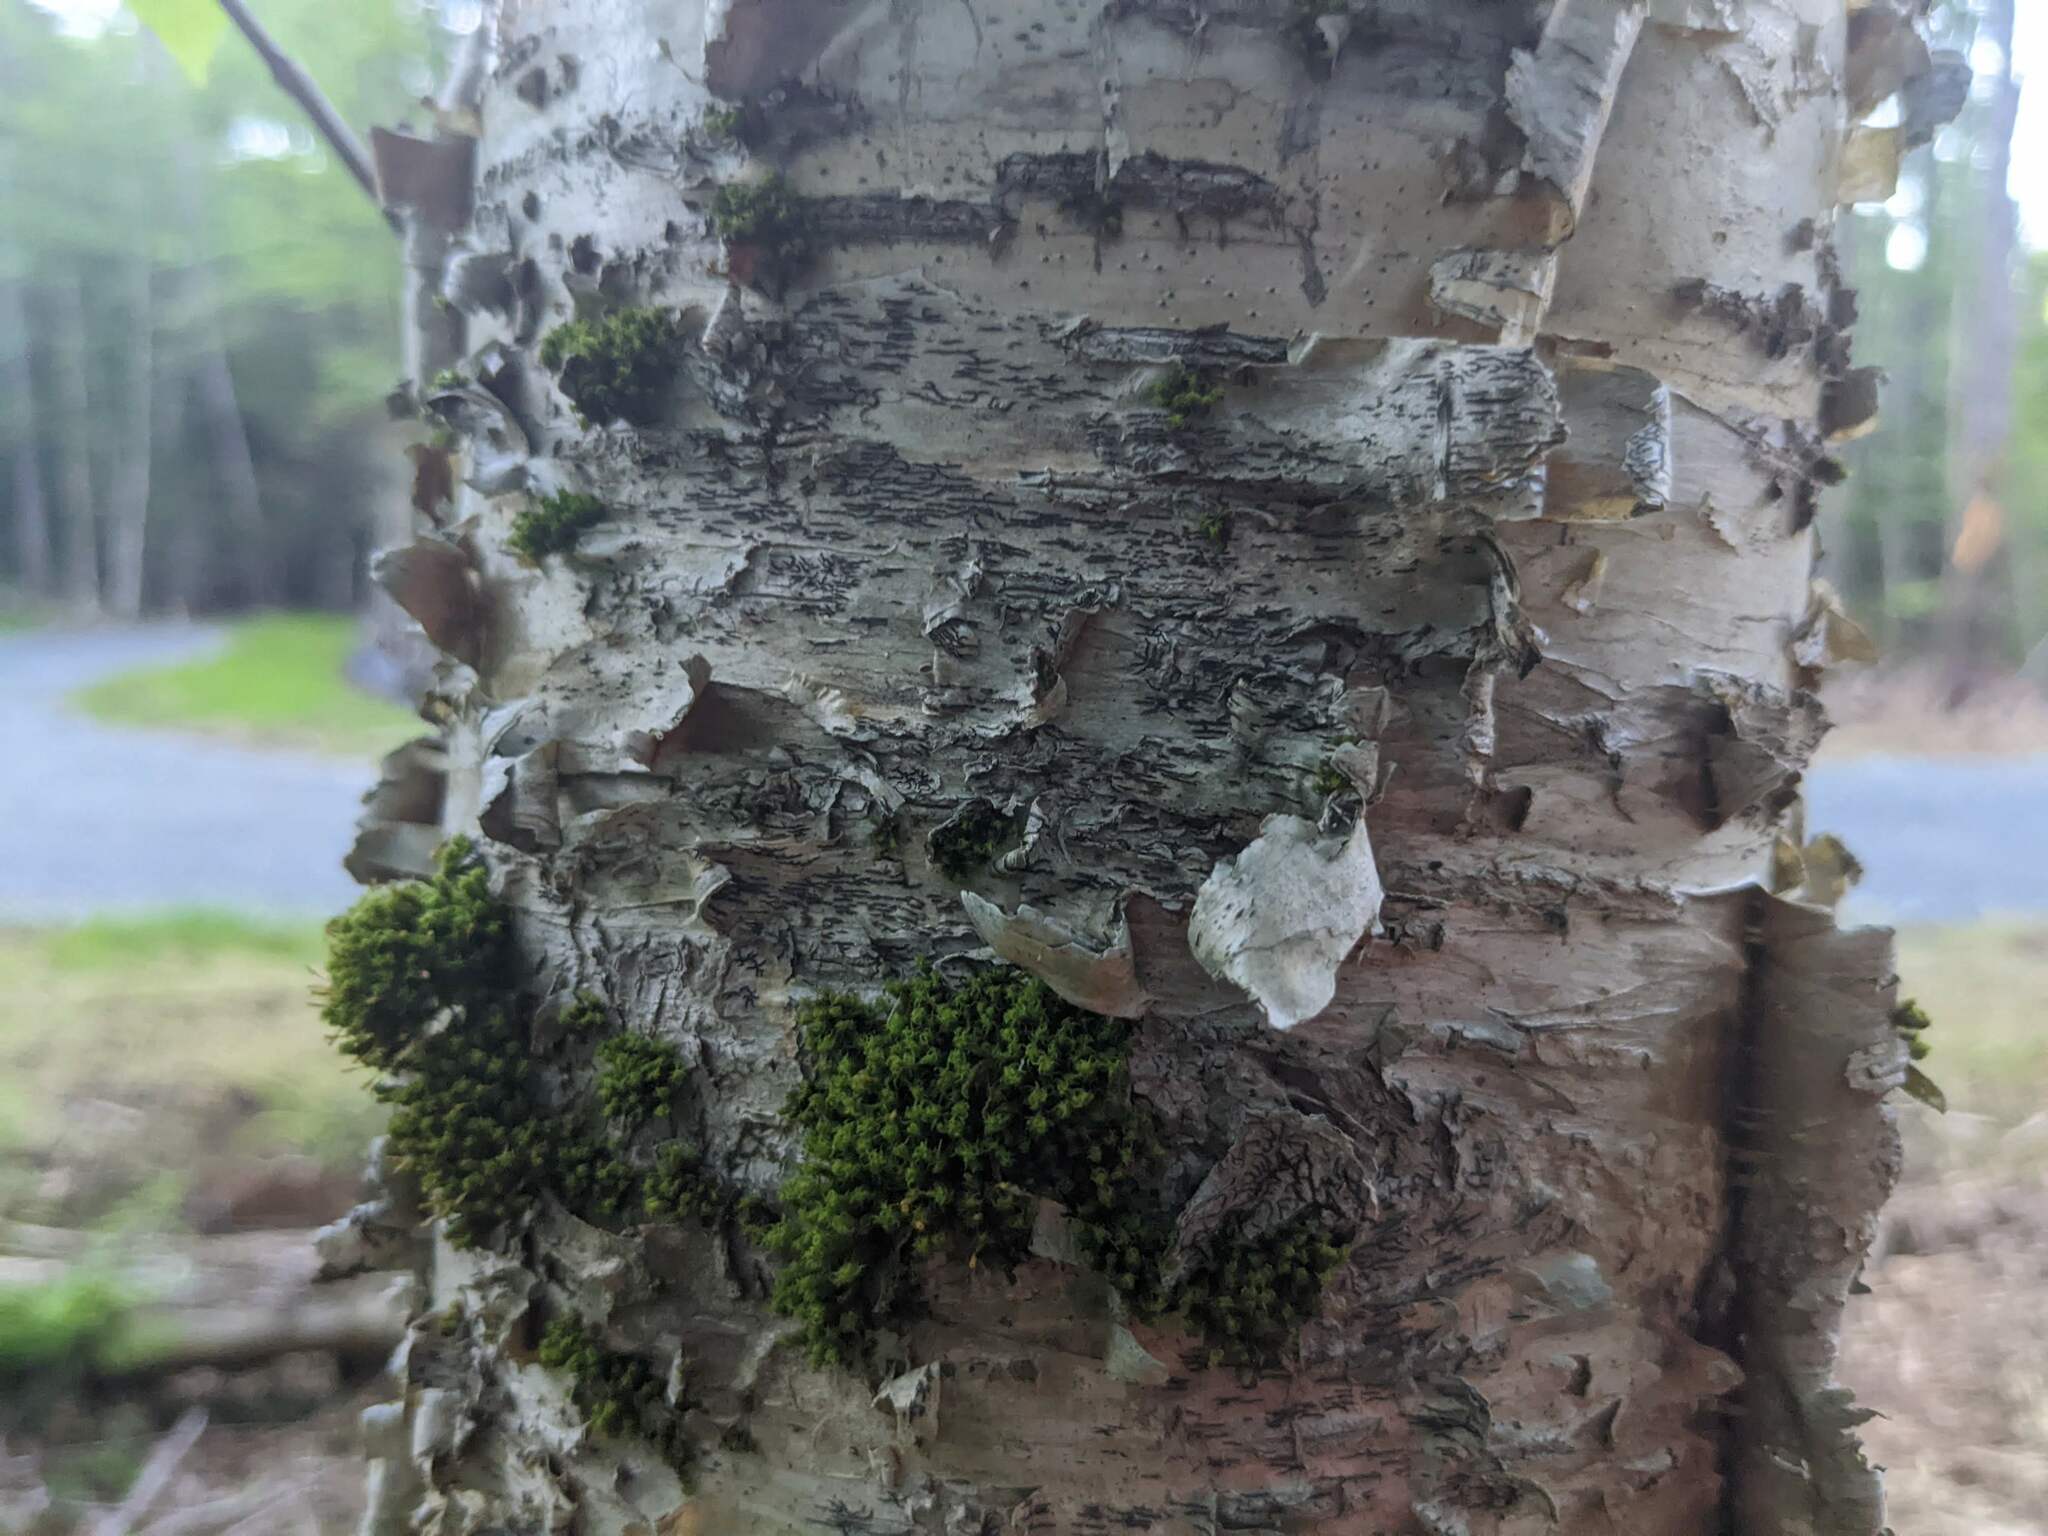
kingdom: Plantae
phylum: Bryophyta
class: Bryopsida
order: Orthotrichales
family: Orthotrichaceae
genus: Ulota
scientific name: Ulota crispa
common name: Crisped pincushion moss
